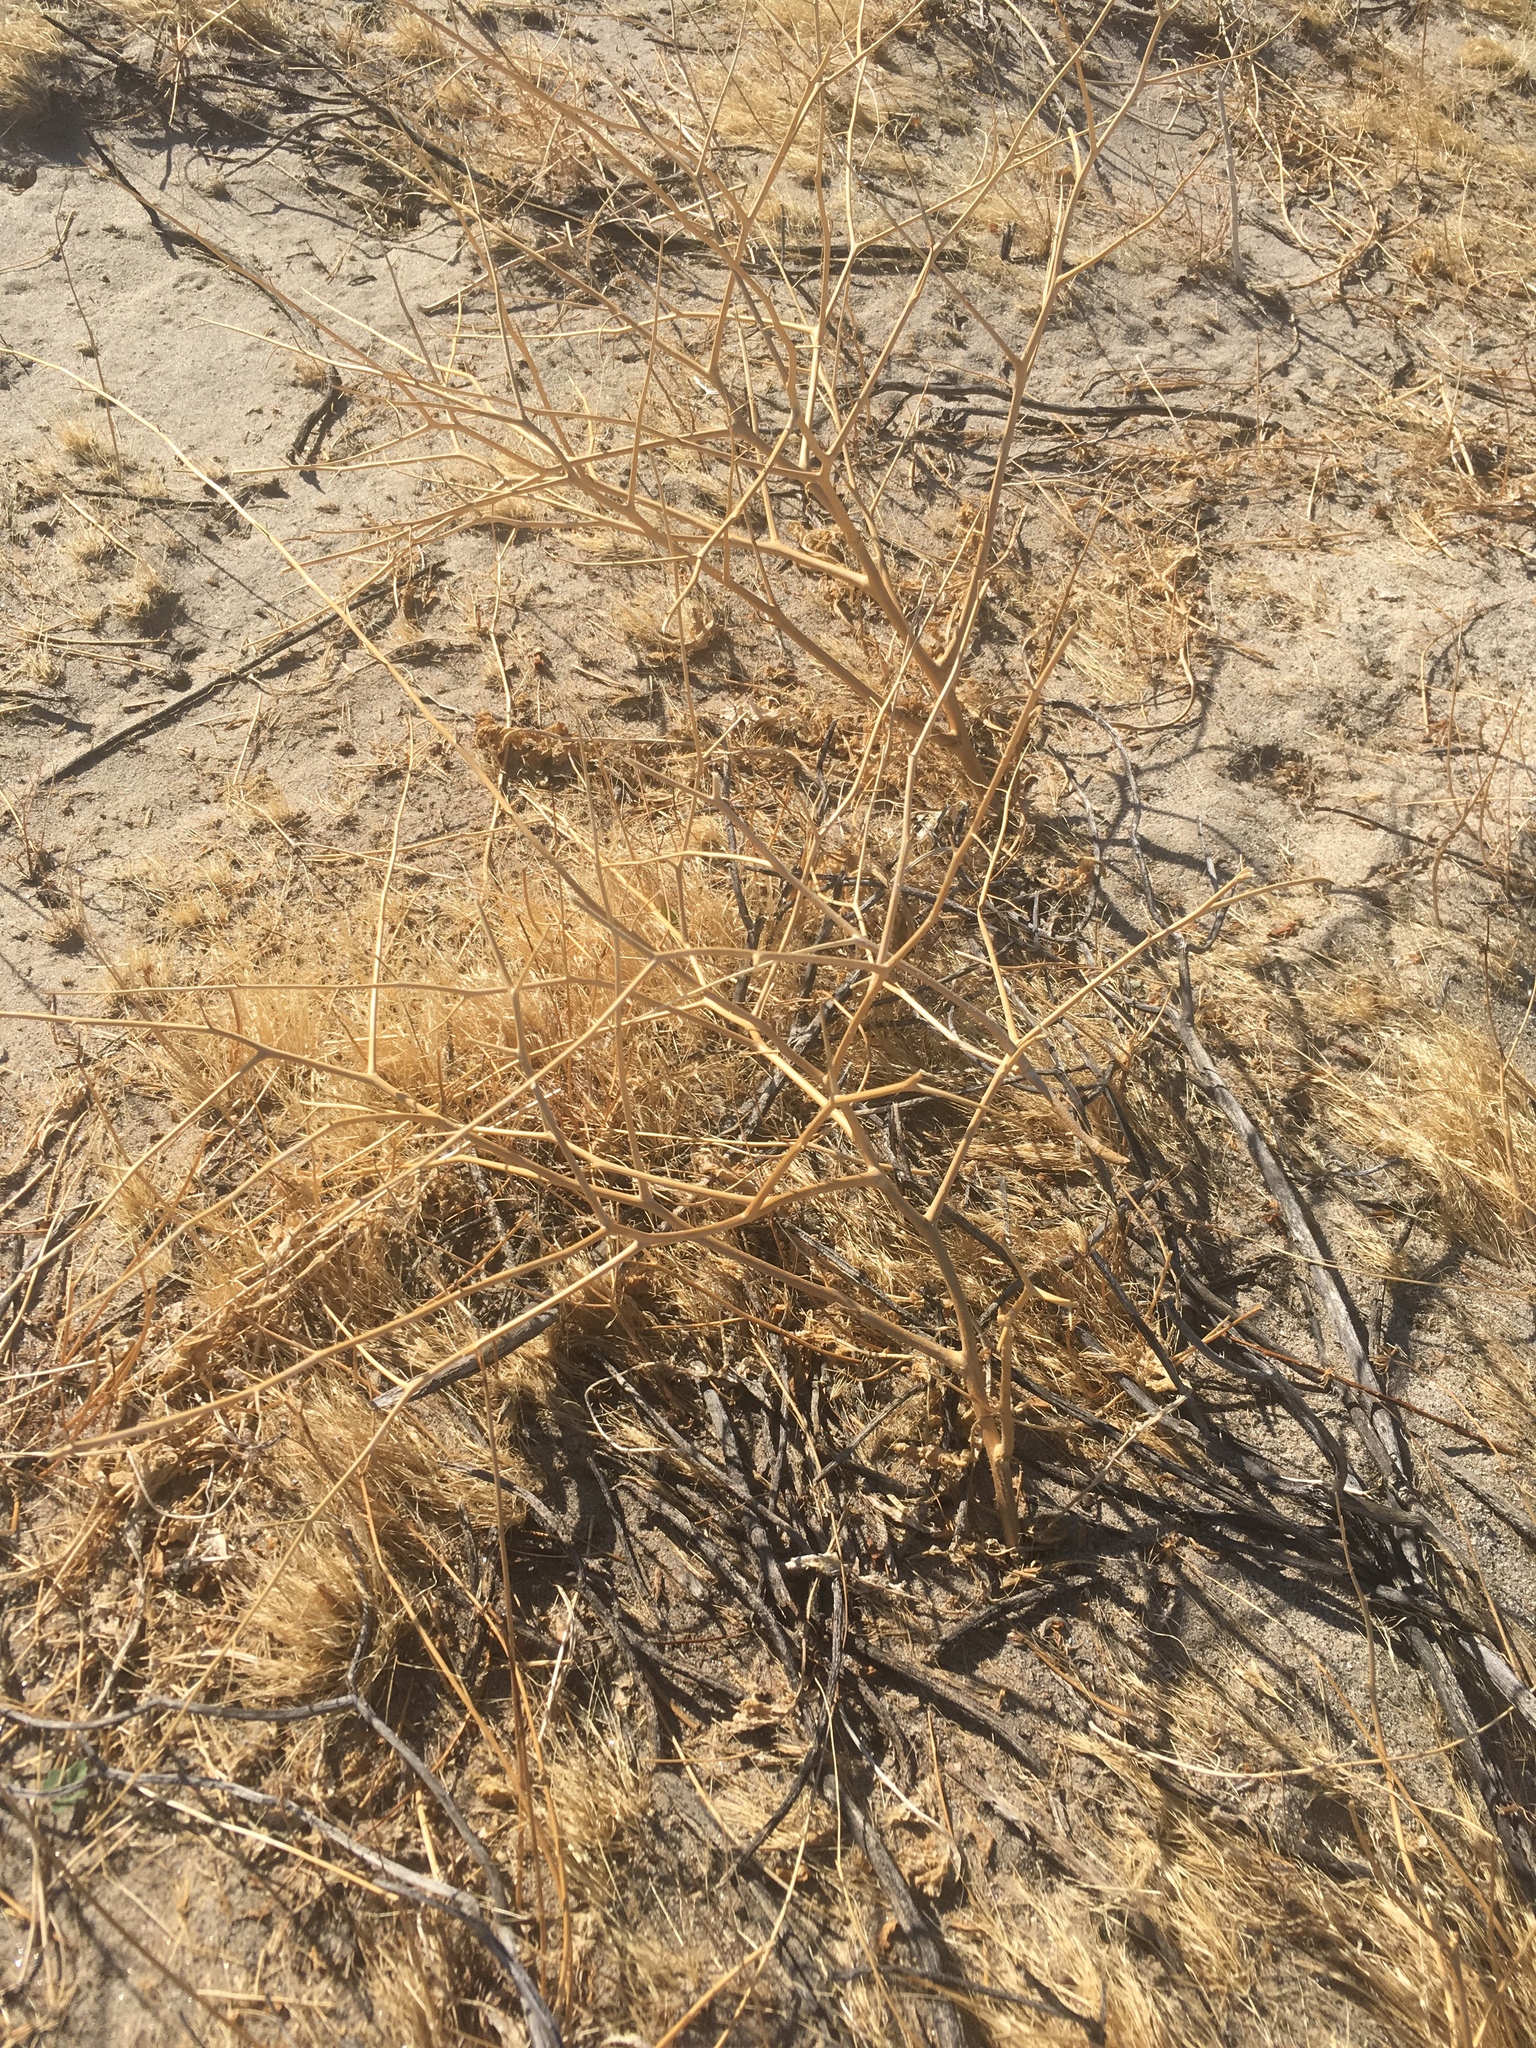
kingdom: Plantae
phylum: Tracheophyta
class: Magnoliopsida
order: Brassicales
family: Brassicaceae
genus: Brassica
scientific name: Brassica tournefortii
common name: Pale cabbage
